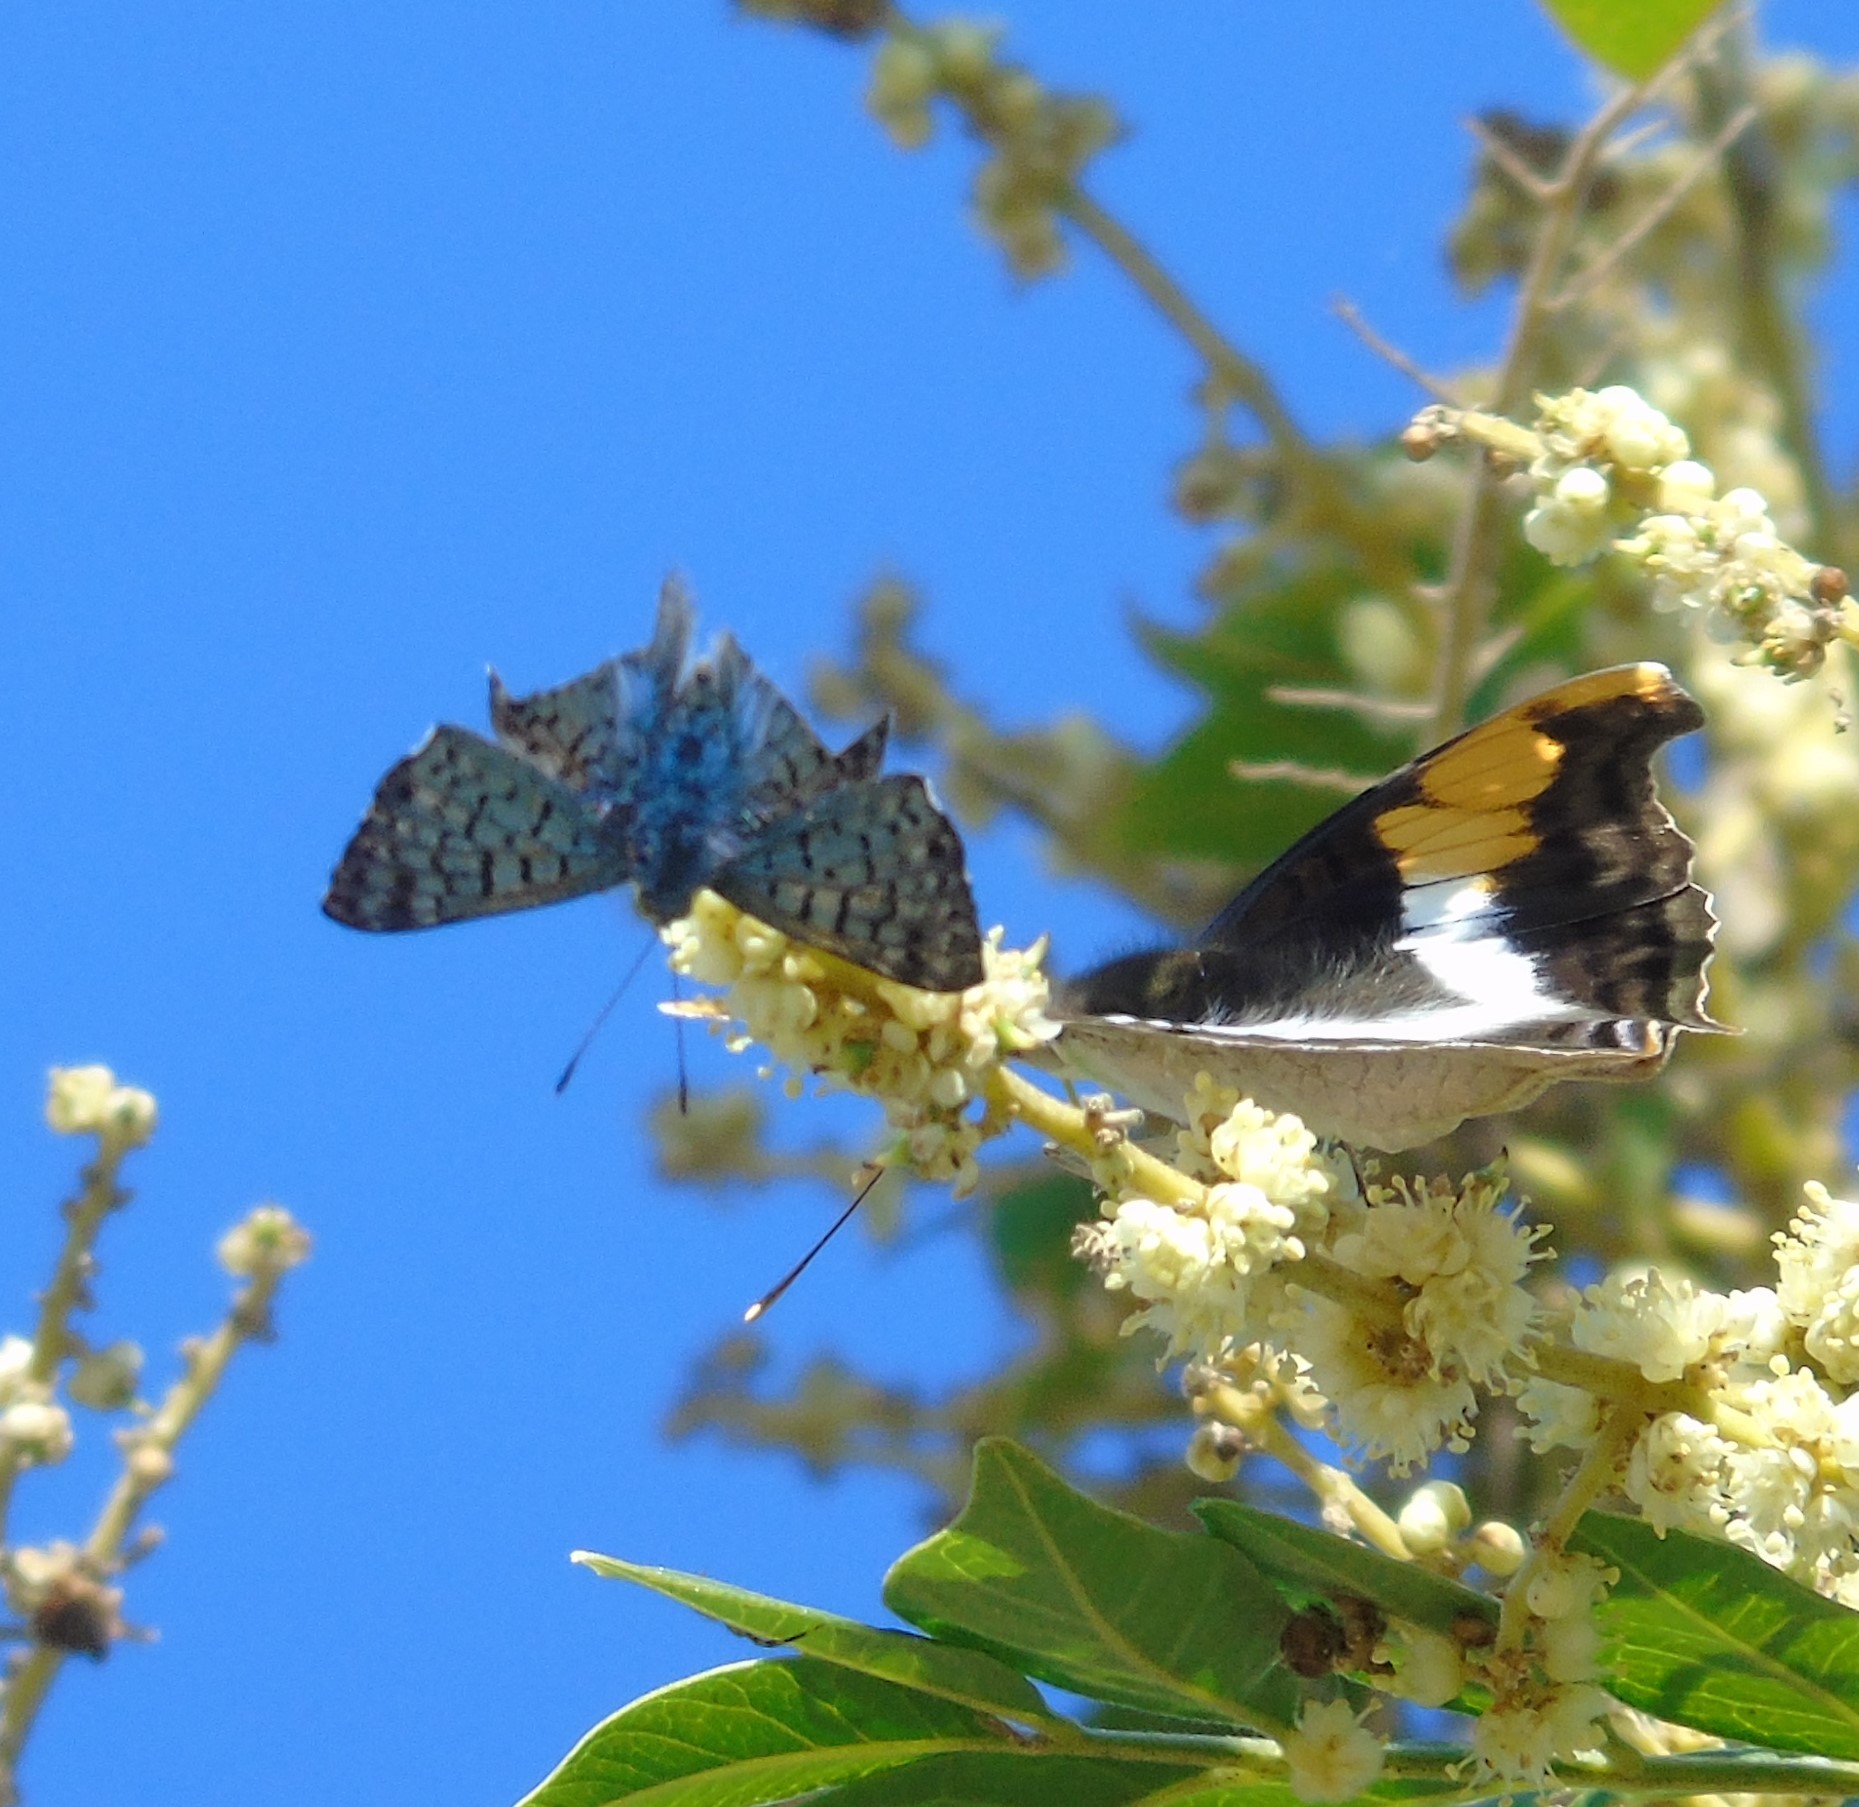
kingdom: Animalia
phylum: Arthropoda
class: Insecta
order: Lepidoptera
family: Nymphalidae
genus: Doxocopa
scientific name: Doxocopa laure
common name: Silver emperor
